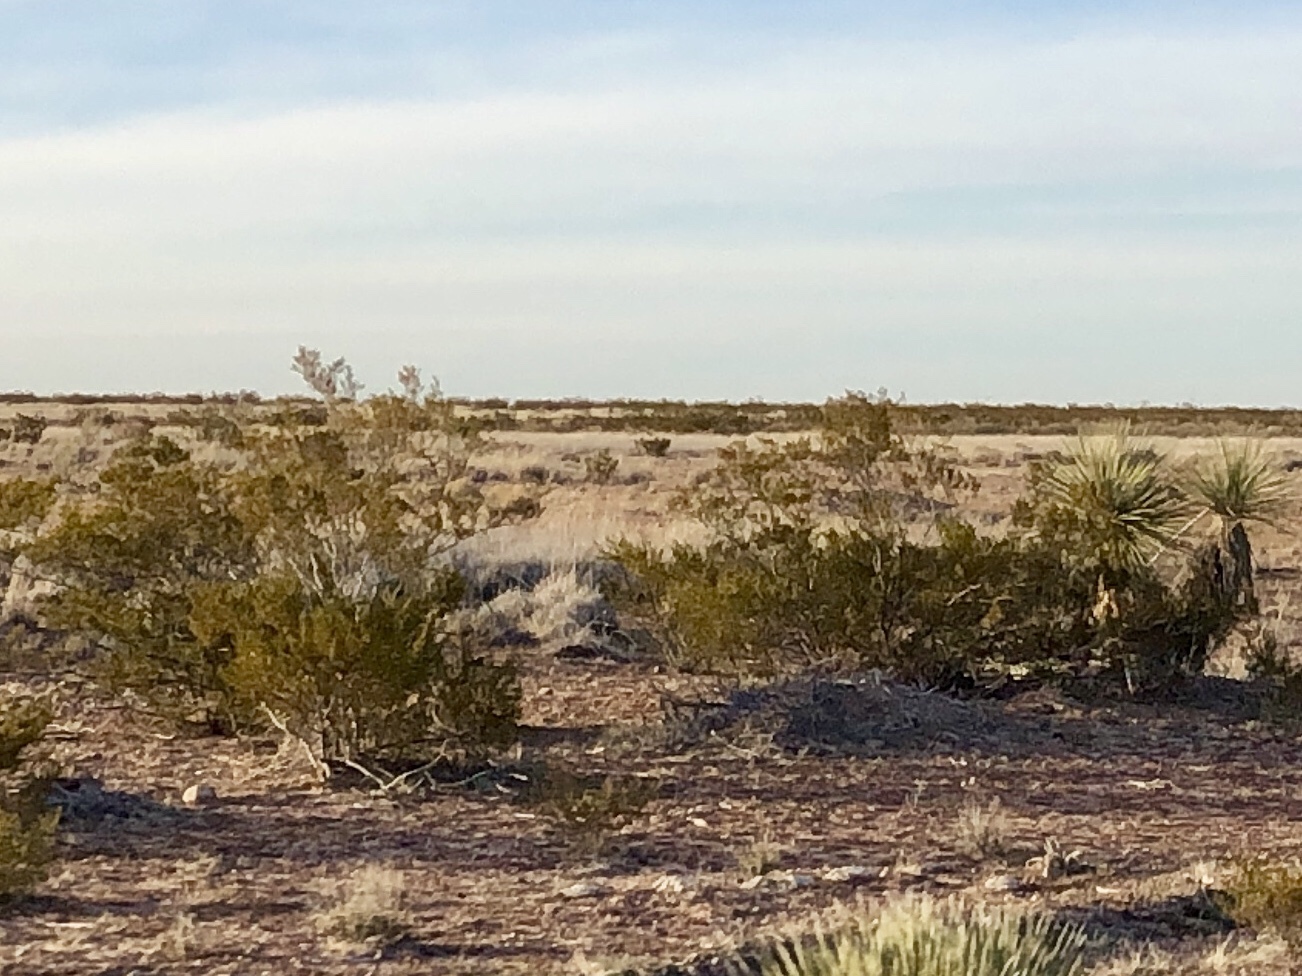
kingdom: Plantae
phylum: Tracheophyta
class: Magnoliopsida
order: Zygophyllales
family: Zygophyllaceae
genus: Larrea
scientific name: Larrea tridentata
